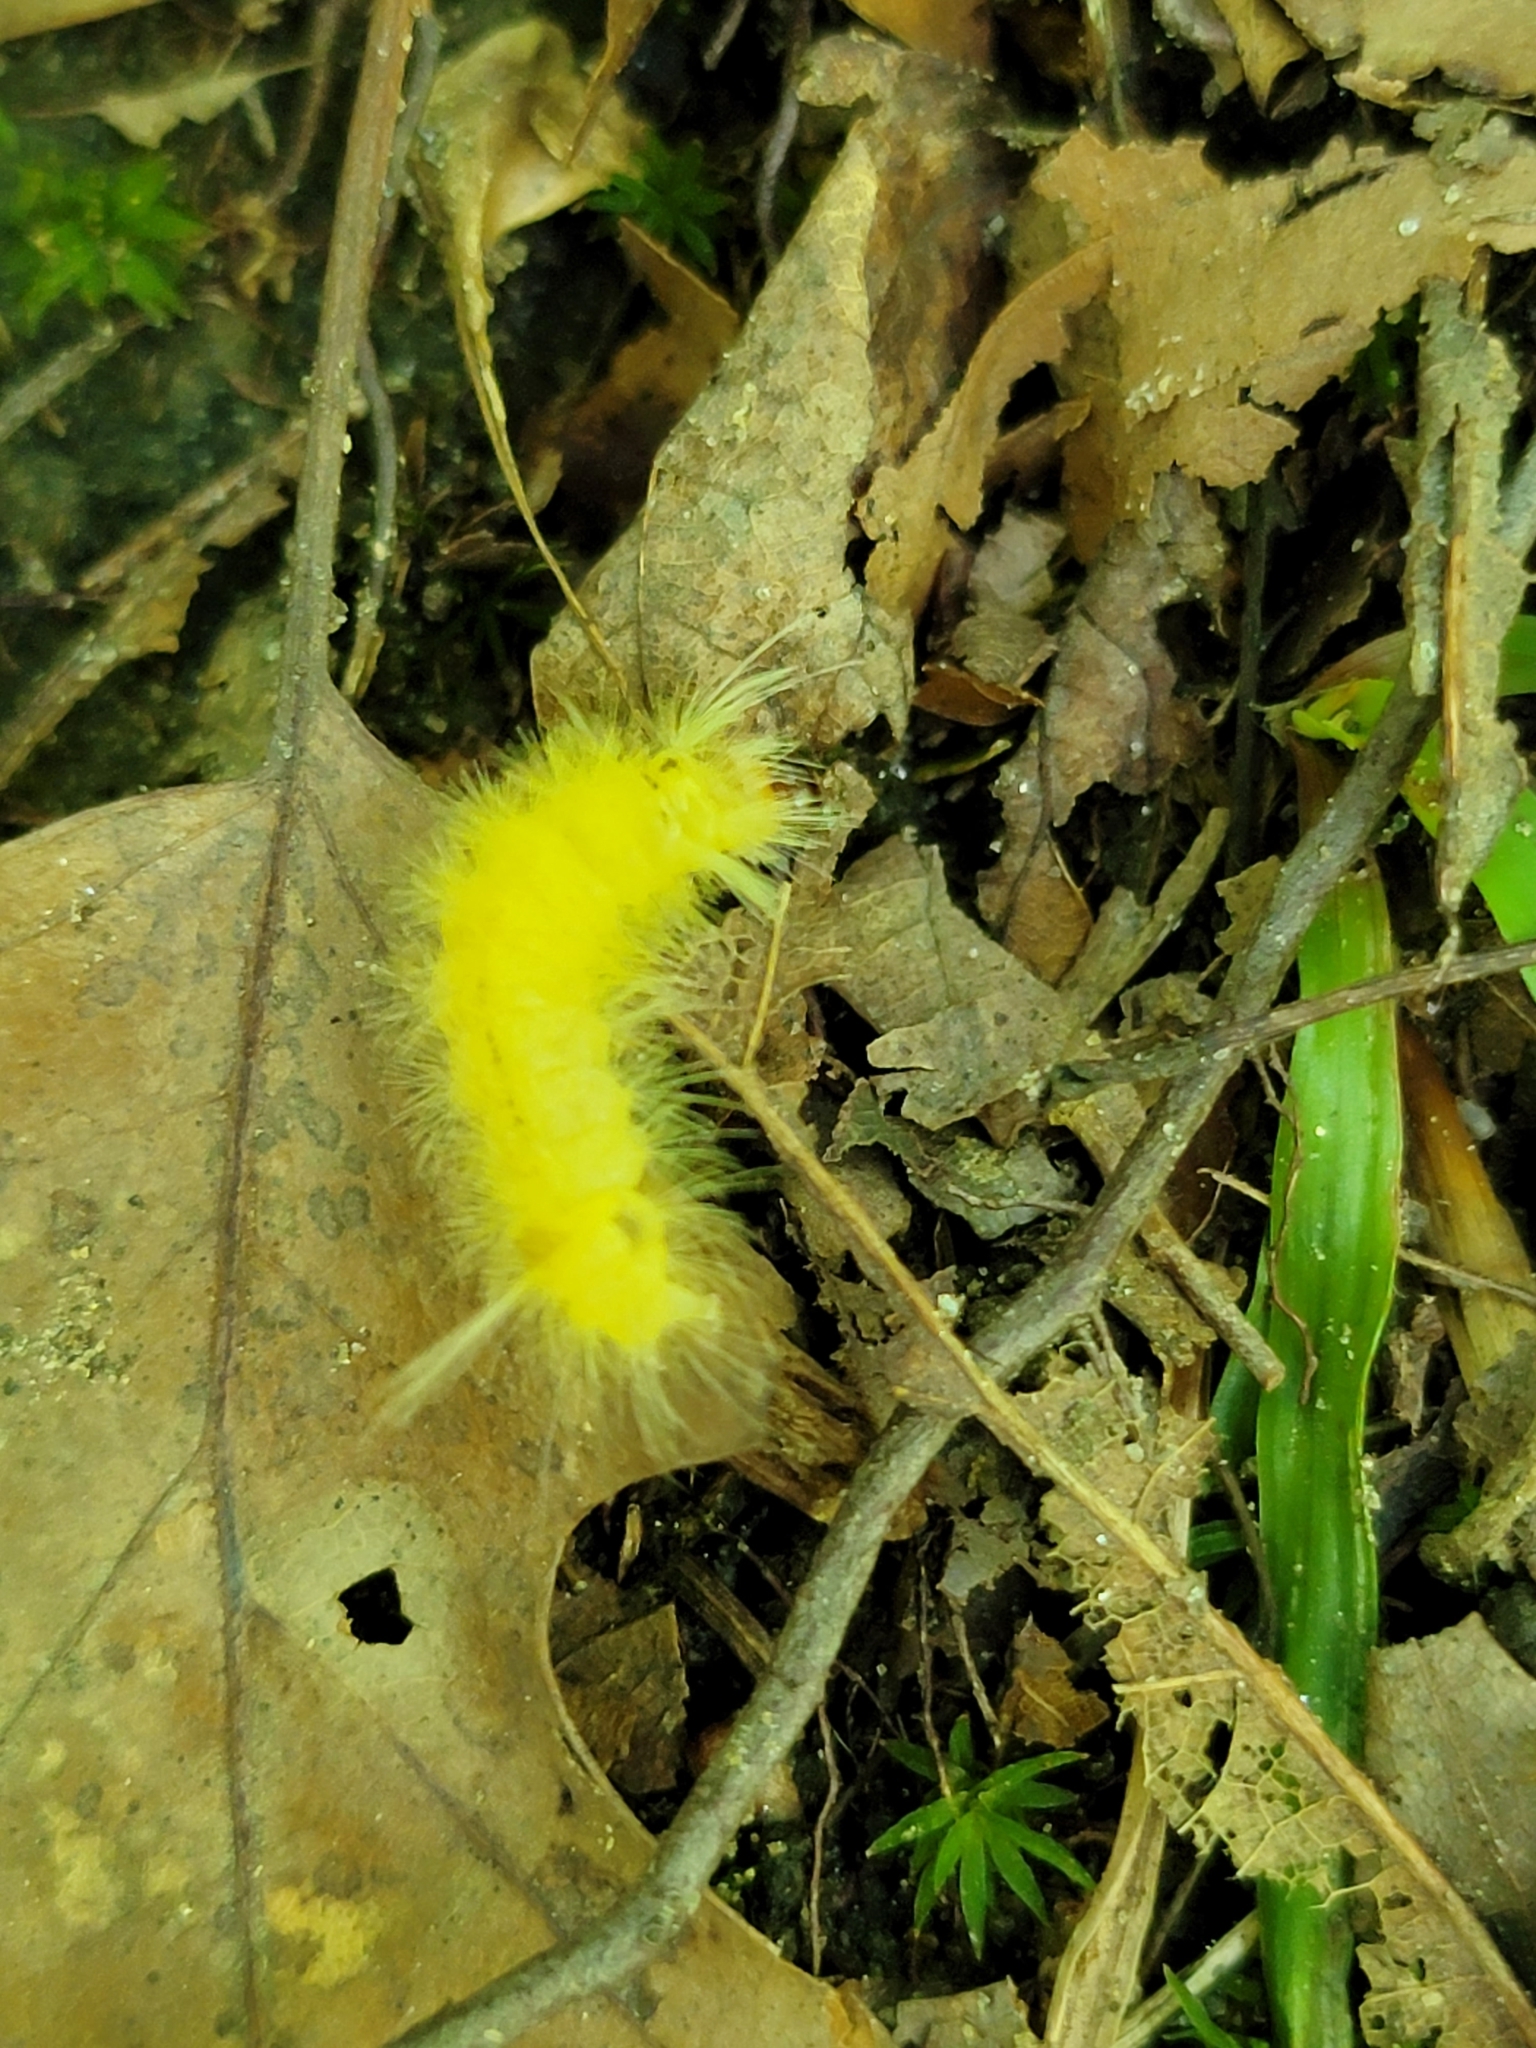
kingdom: Animalia
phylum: Arthropoda
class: Insecta
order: Lepidoptera
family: Erebidae
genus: Halysidota
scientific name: Halysidota tessellaris
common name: Banded tussock moth
